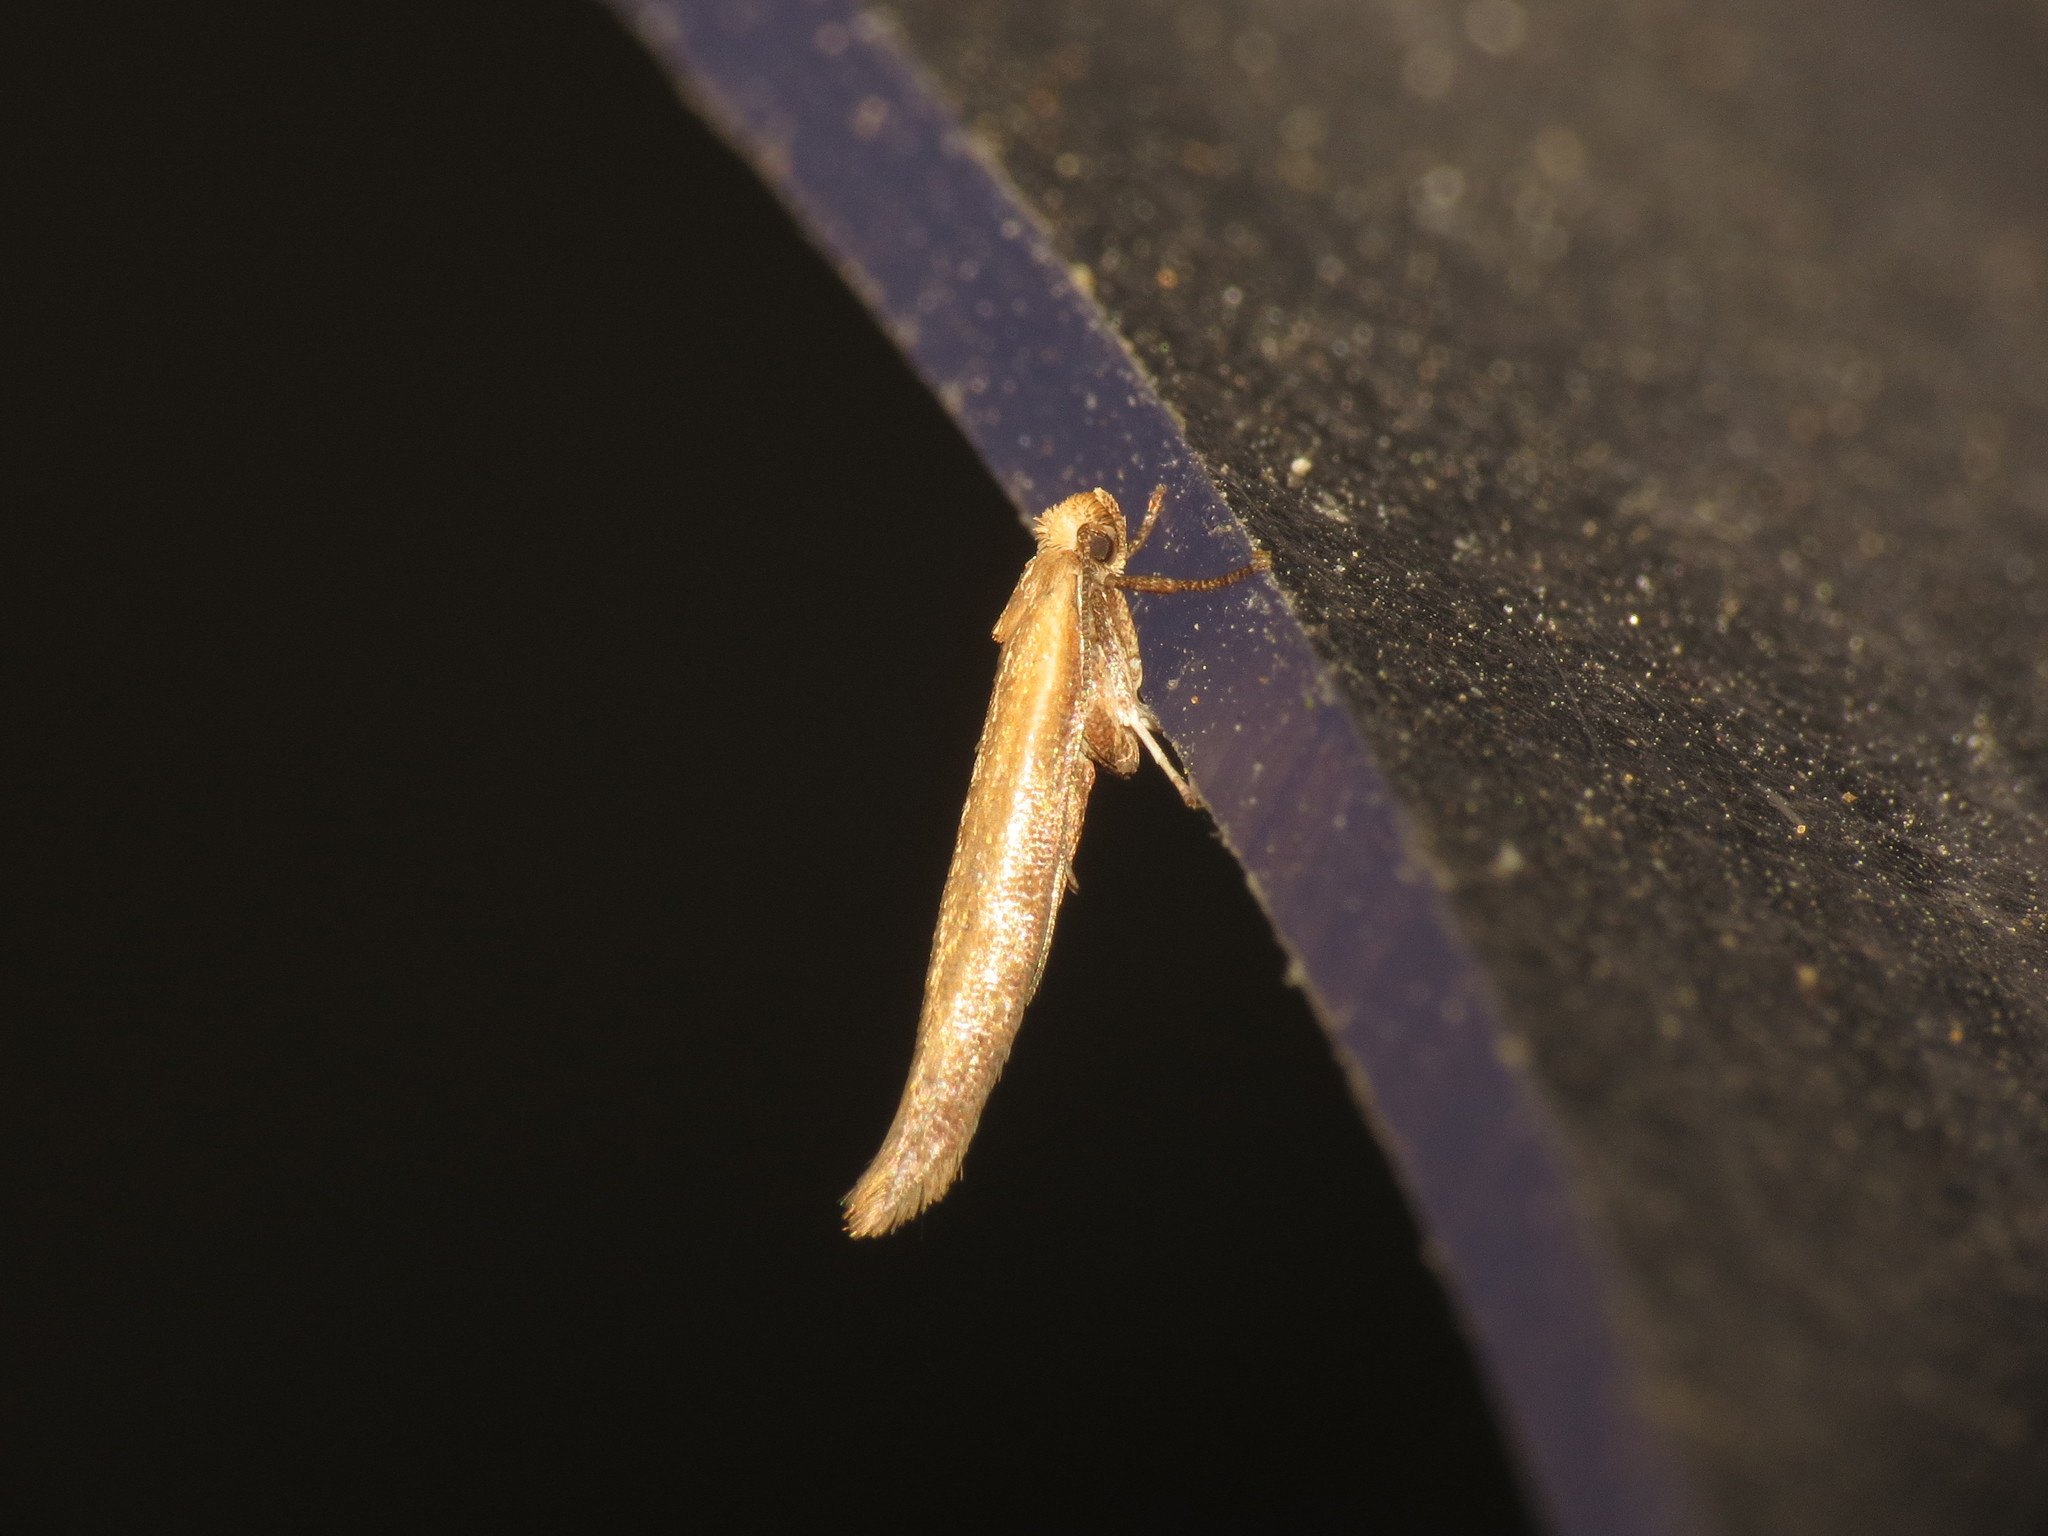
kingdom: Animalia
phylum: Arthropoda
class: Insecta
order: Lepidoptera
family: Yponomeutidae
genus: Zelleria
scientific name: Zelleria hepariella
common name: Brown ash ermine
